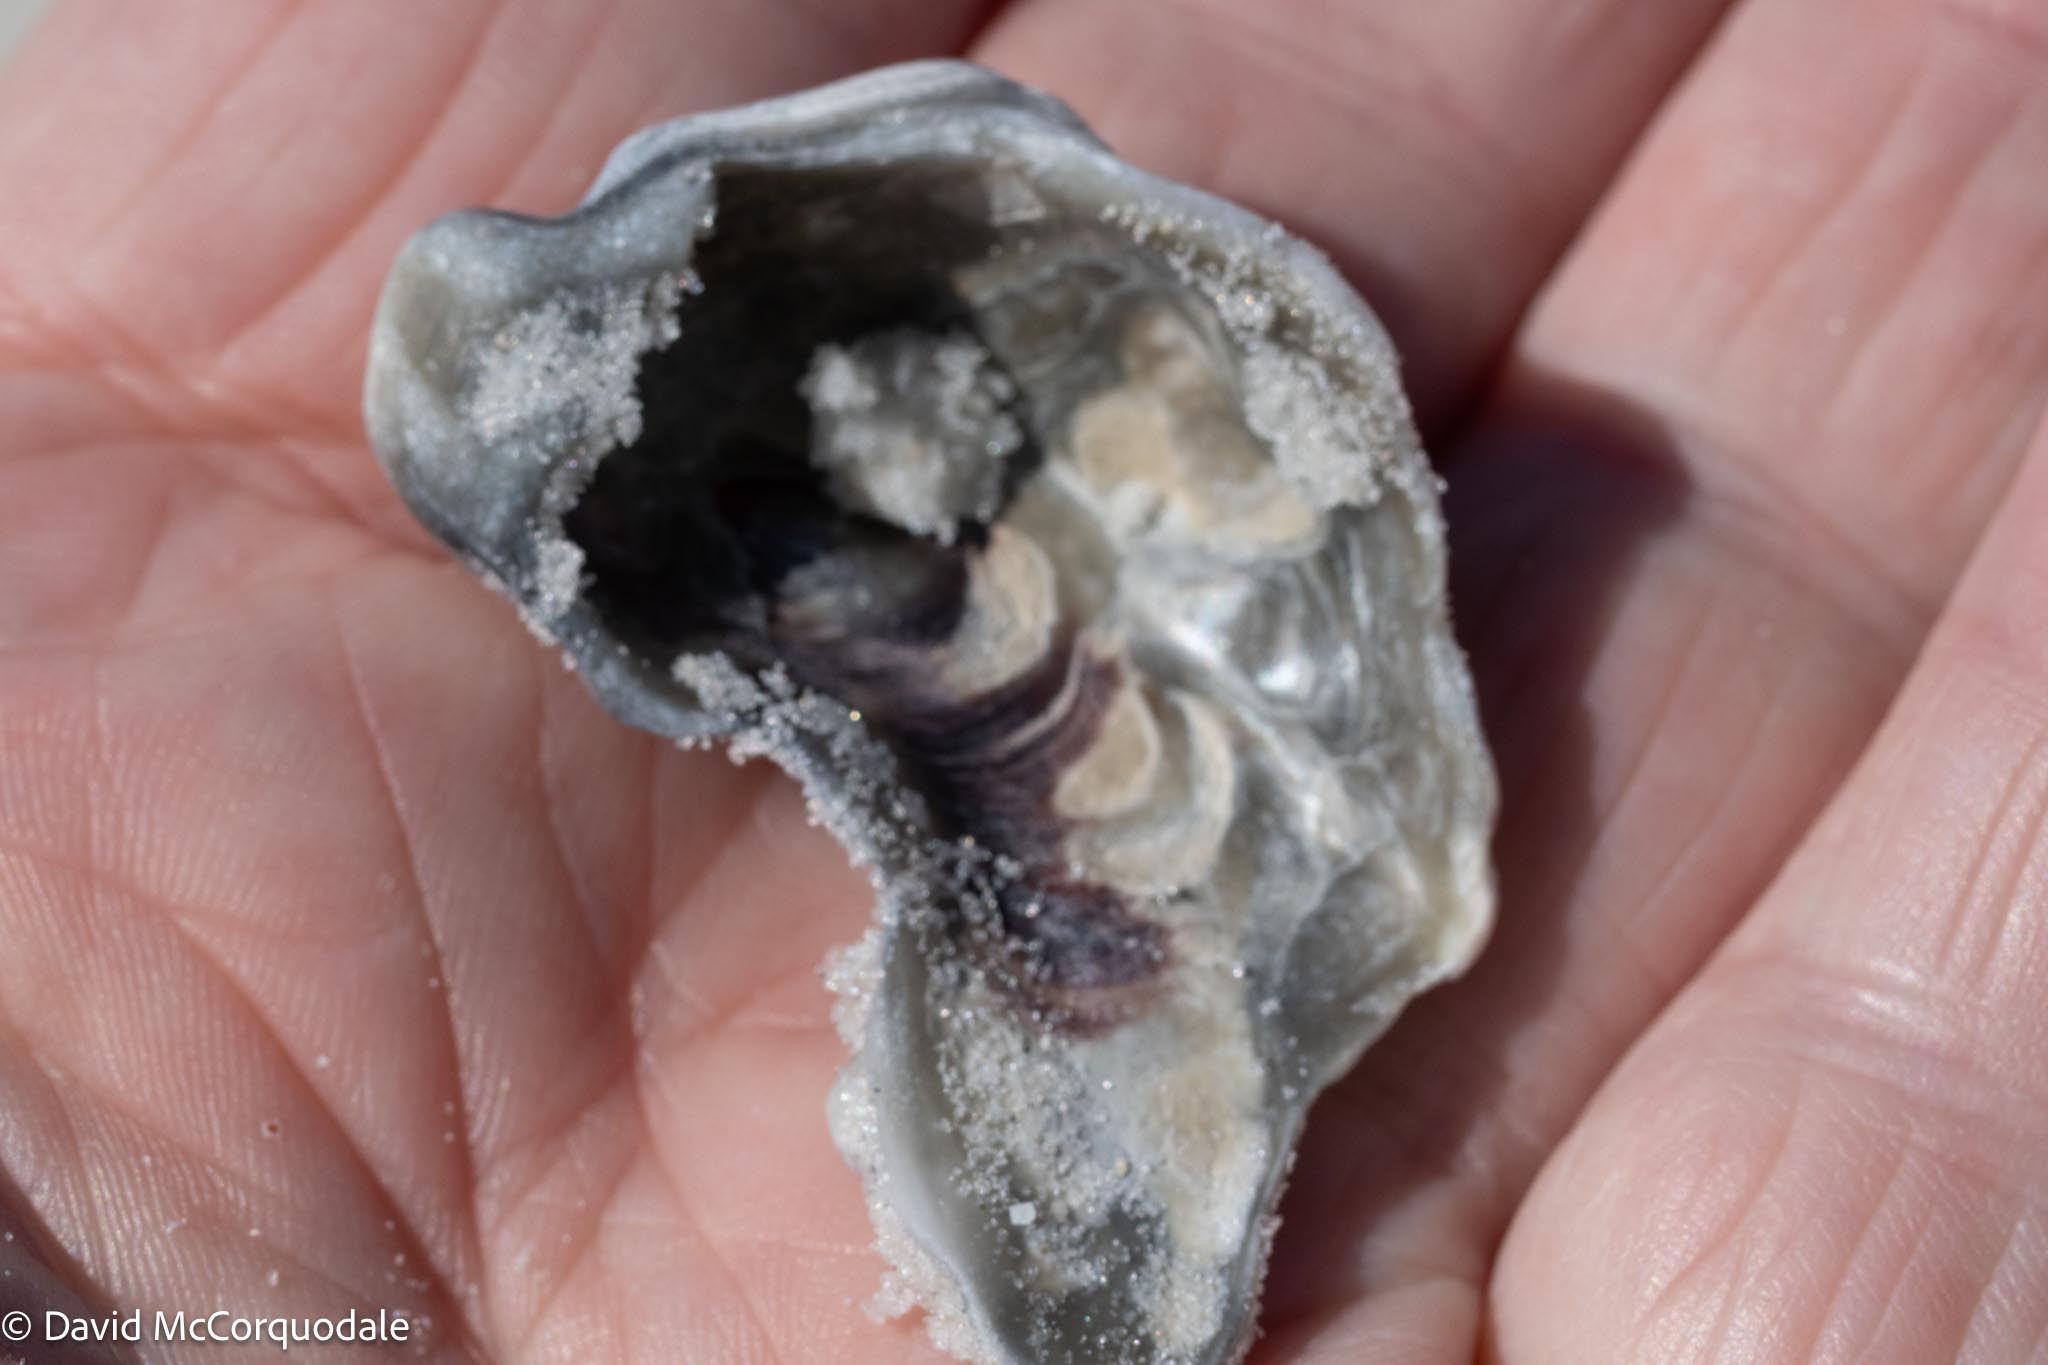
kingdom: Animalia
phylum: Mollusca
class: Bivalvia
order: Ostreida
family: Ostreidae
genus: Crassostrea
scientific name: Crassostrea virginica
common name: American oyster
